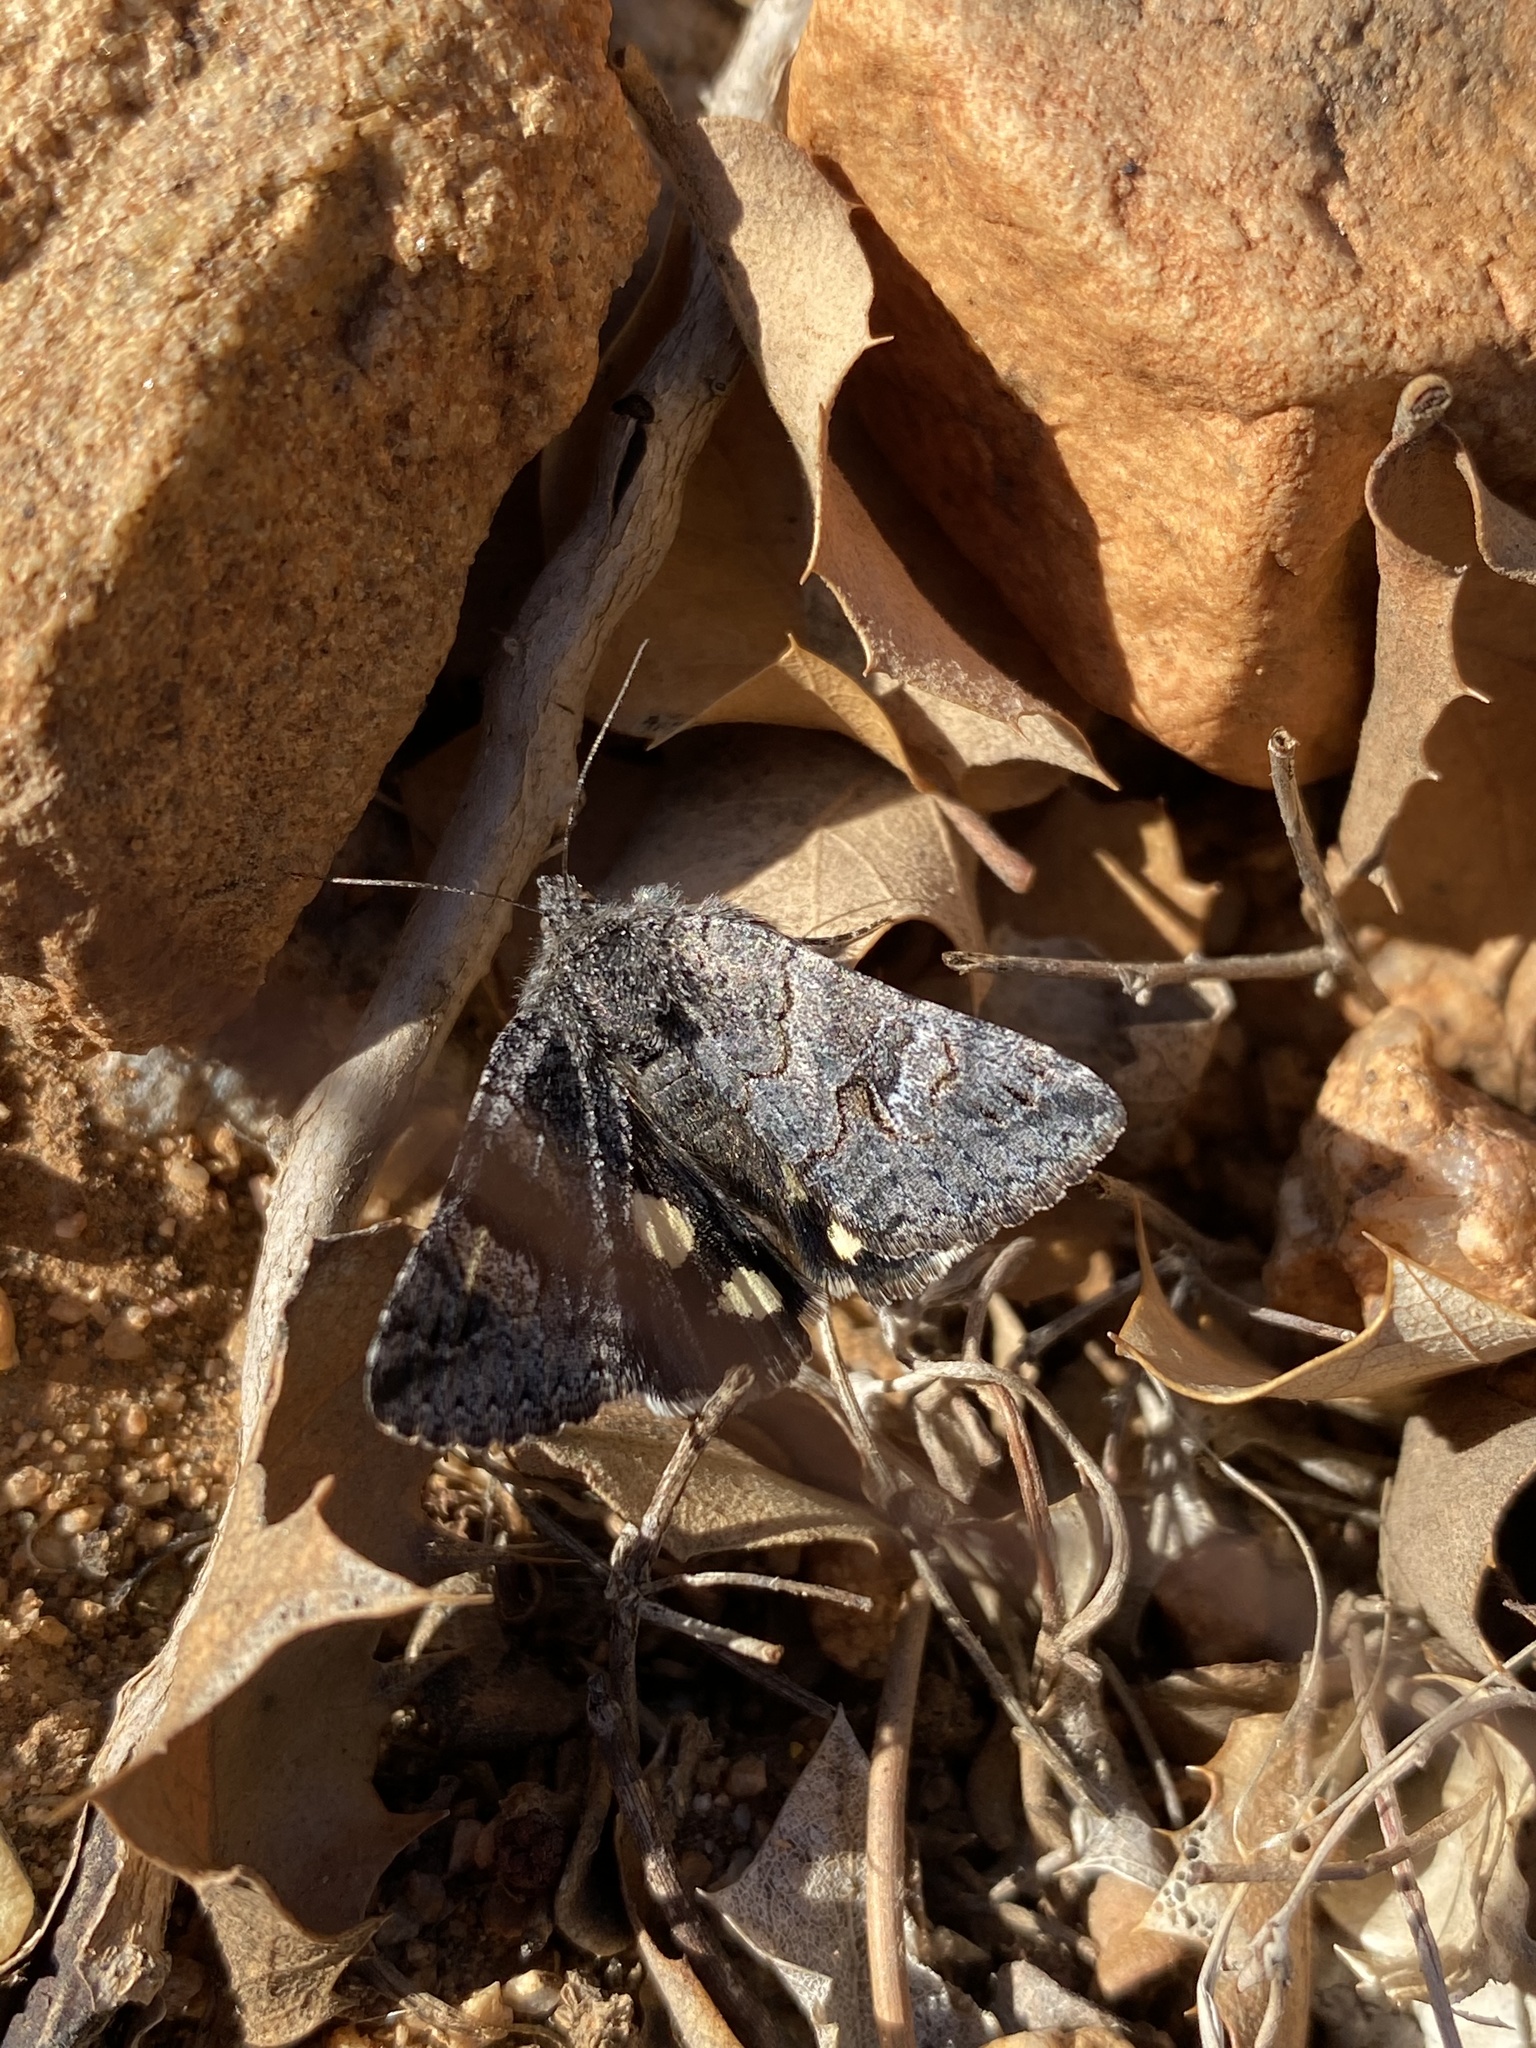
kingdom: Animalia
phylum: Arthropoda
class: Insecta
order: Lepidoptera
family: Erebidae
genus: Litocala
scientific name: Litocala sexsignata
